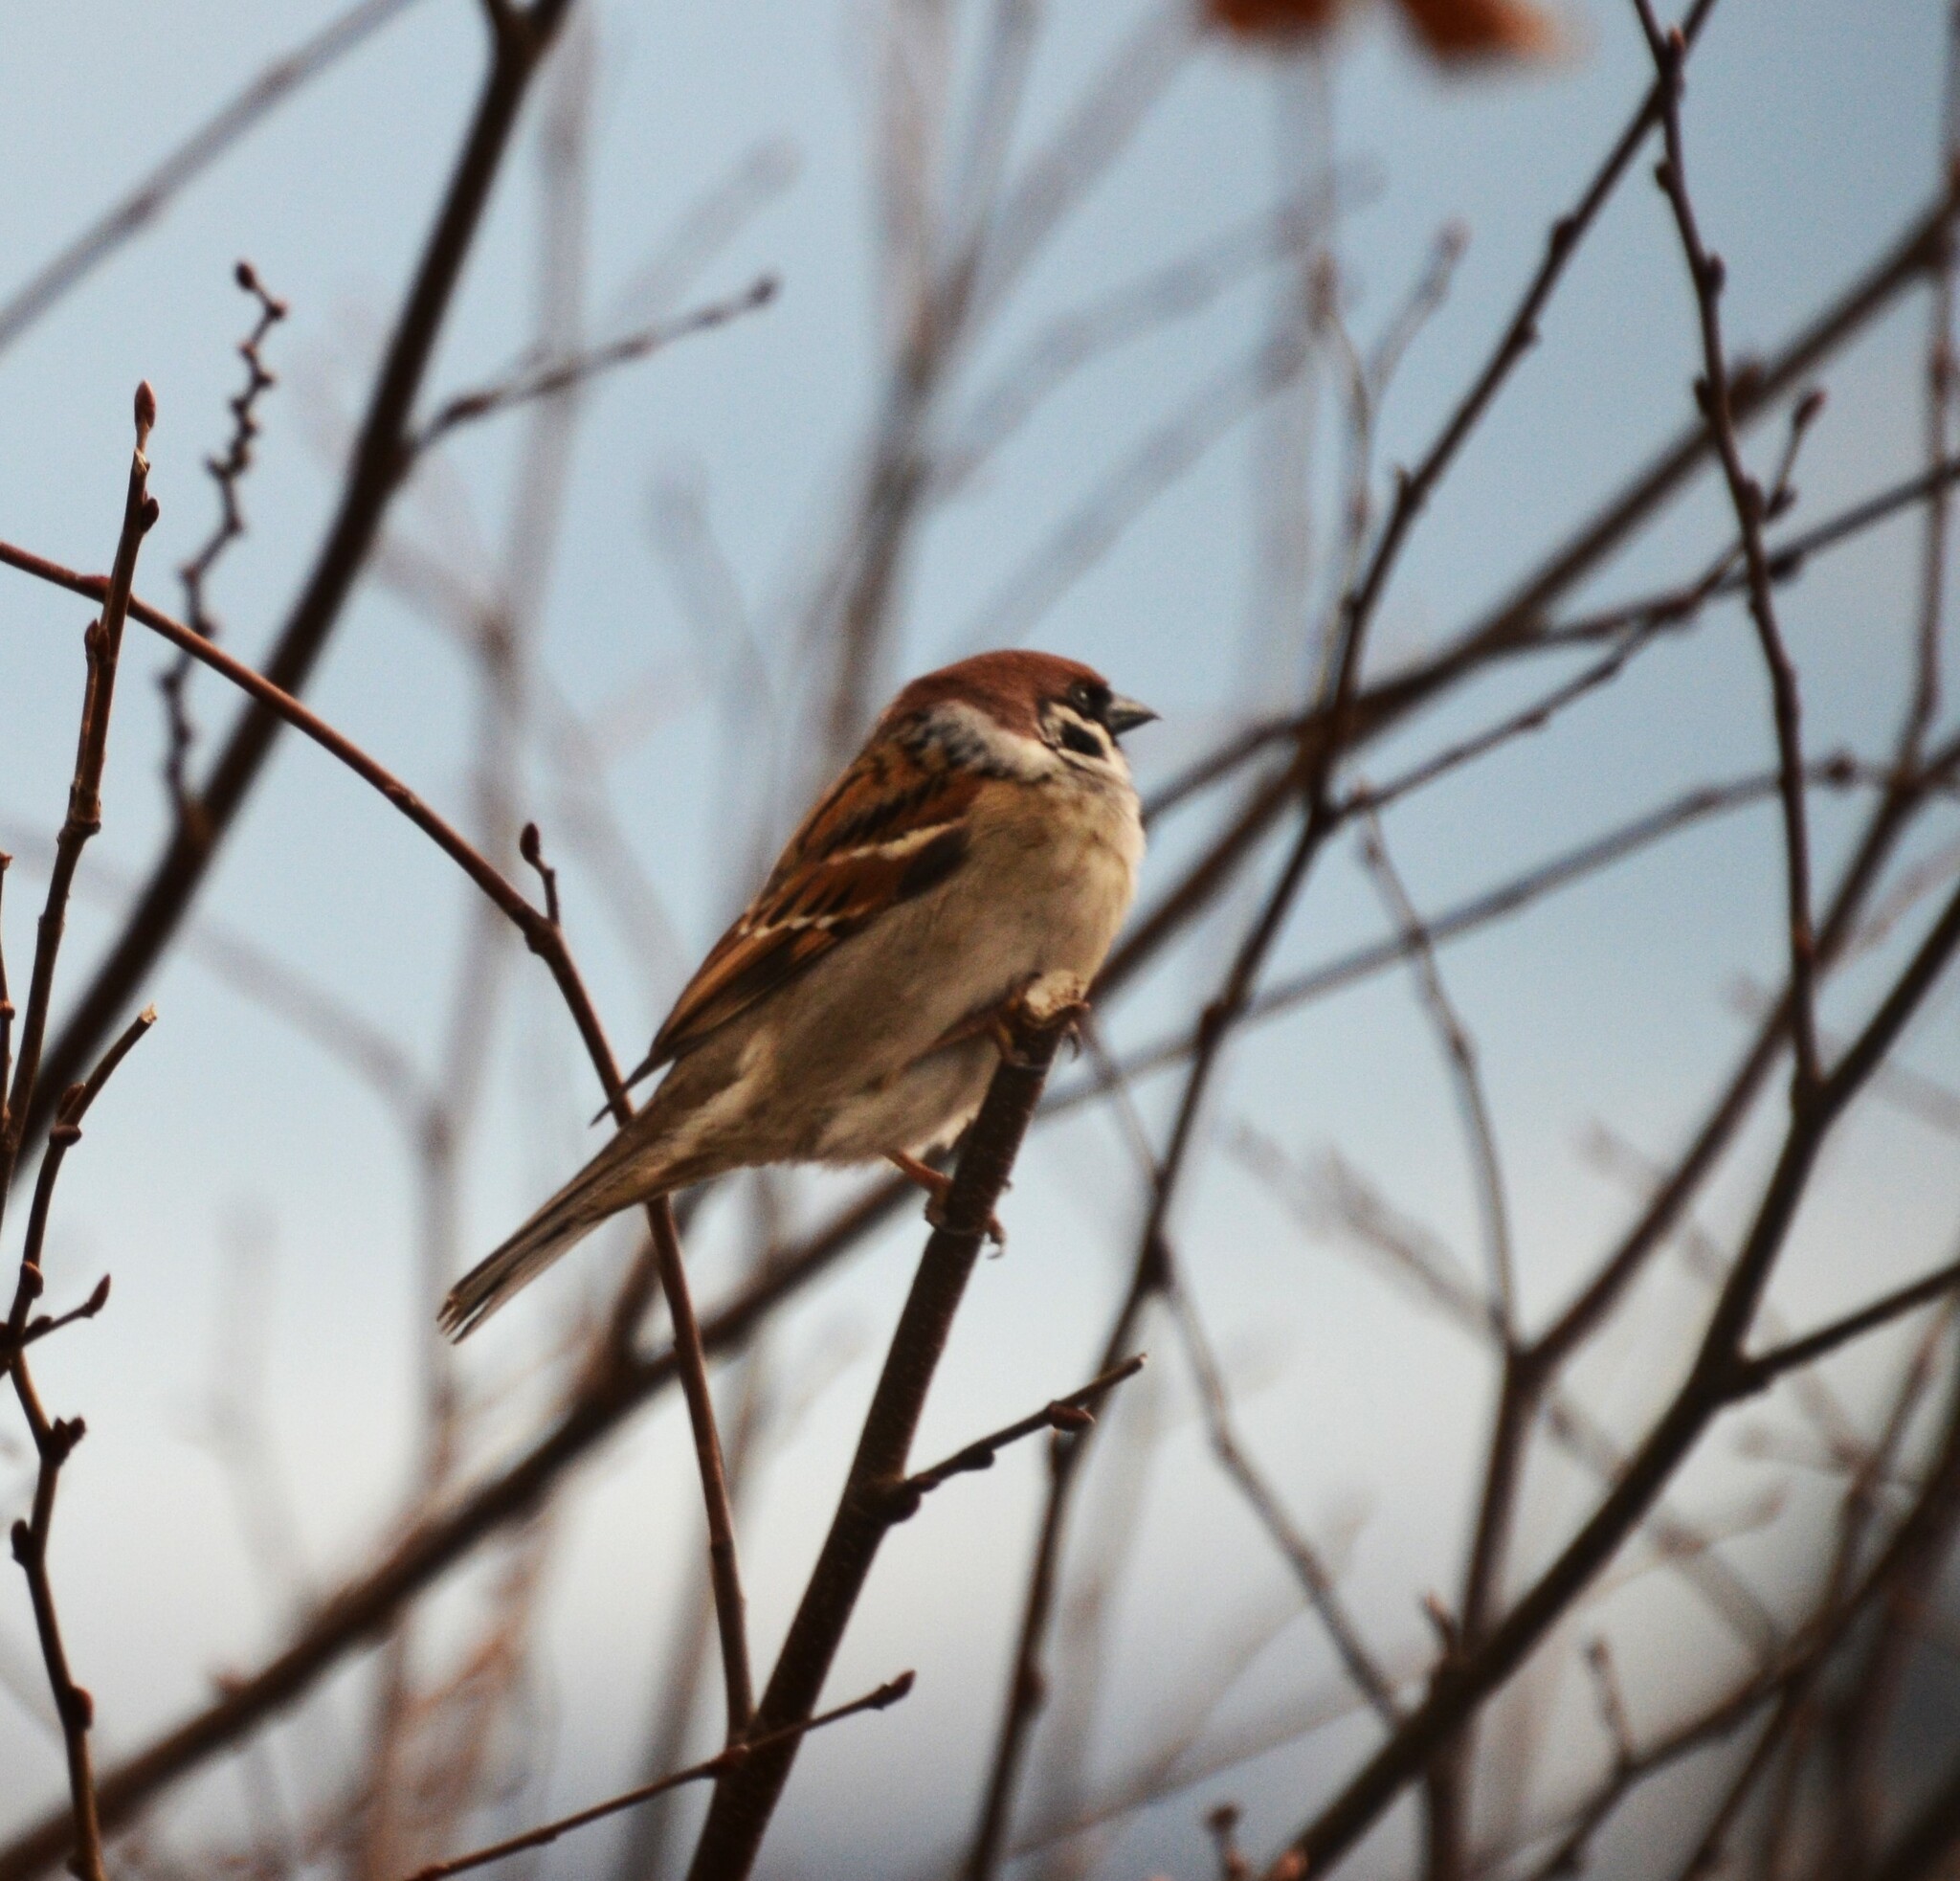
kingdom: Animalia
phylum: Chordata
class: Aves
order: Passeriformes
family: Passeridae
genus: Passer
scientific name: Passer montanus
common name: Eurasian tree sparrow
